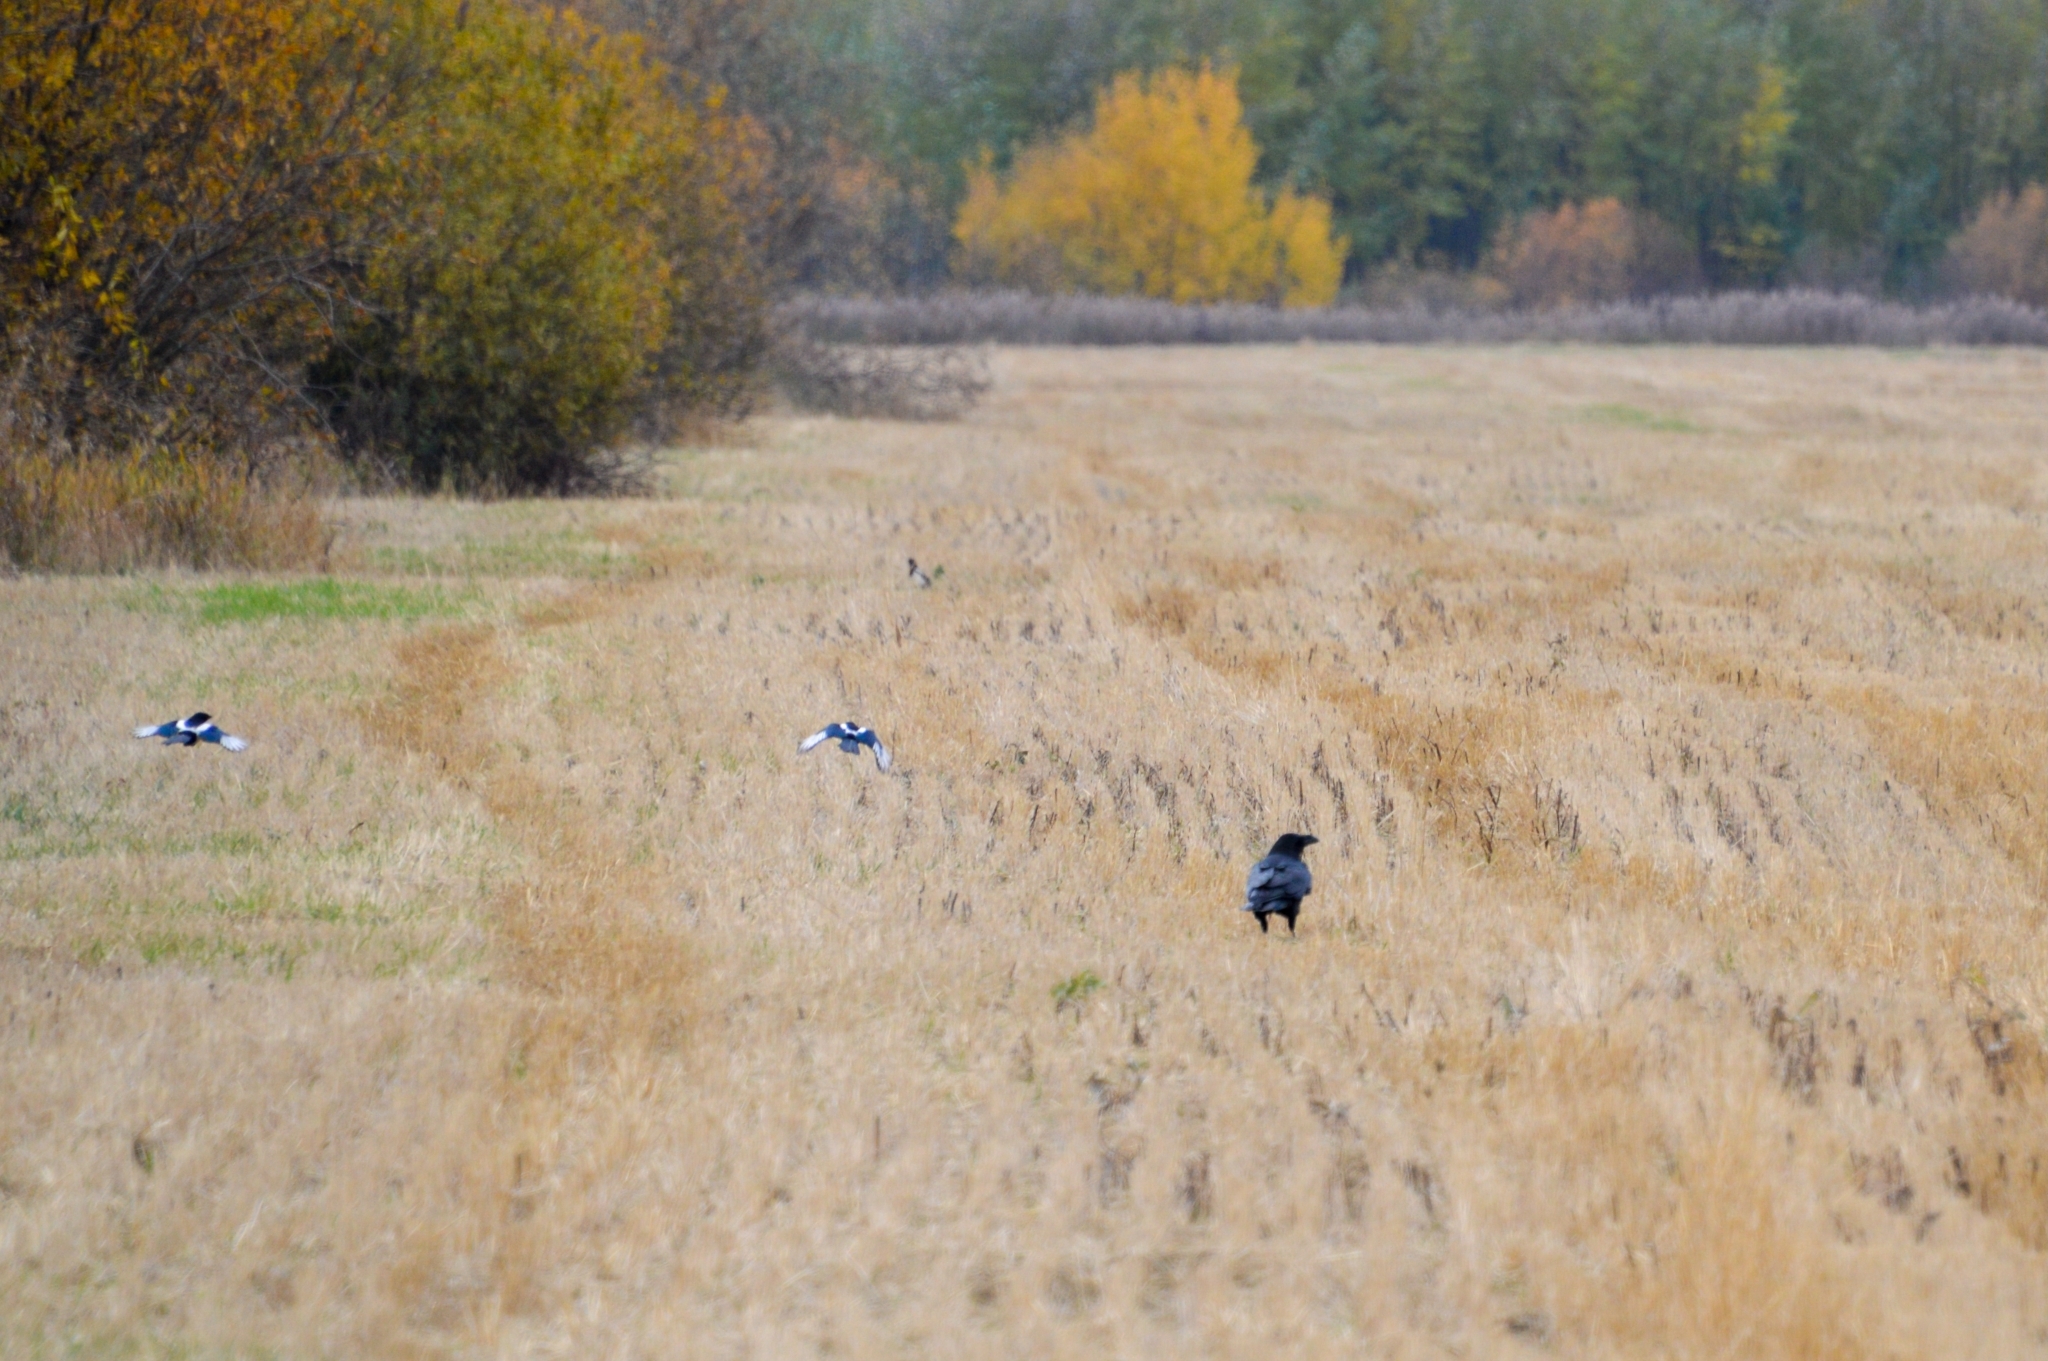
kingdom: Animalia
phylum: Chordata
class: Aves
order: Passeriformes
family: Corvidae
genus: Corvus
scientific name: Corvus corax
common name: Common raven
